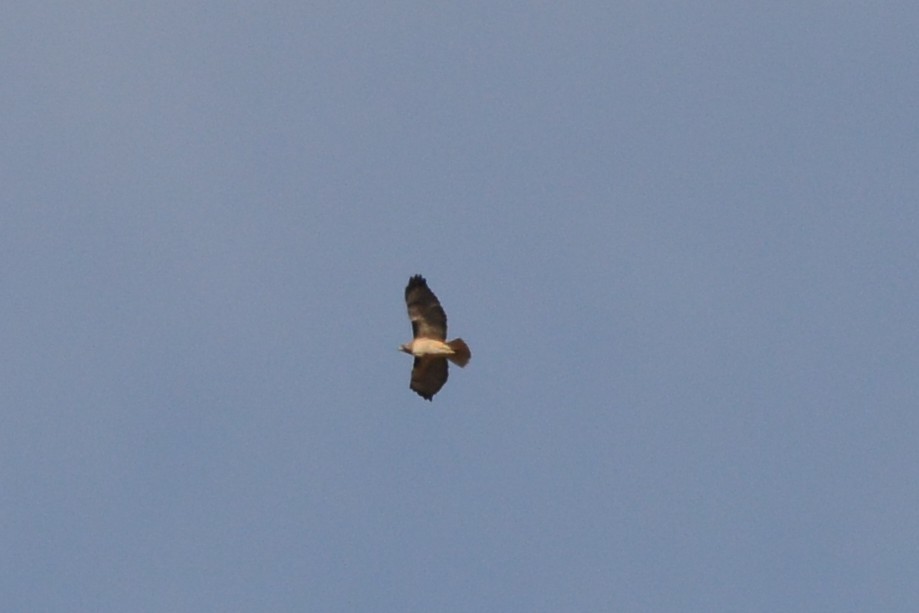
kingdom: Animalia
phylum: Chordata
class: Aves
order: Accipitriformes
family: Accipitridae
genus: Buteo
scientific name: Buteo jamaicensis
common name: Red-tailed hawk
